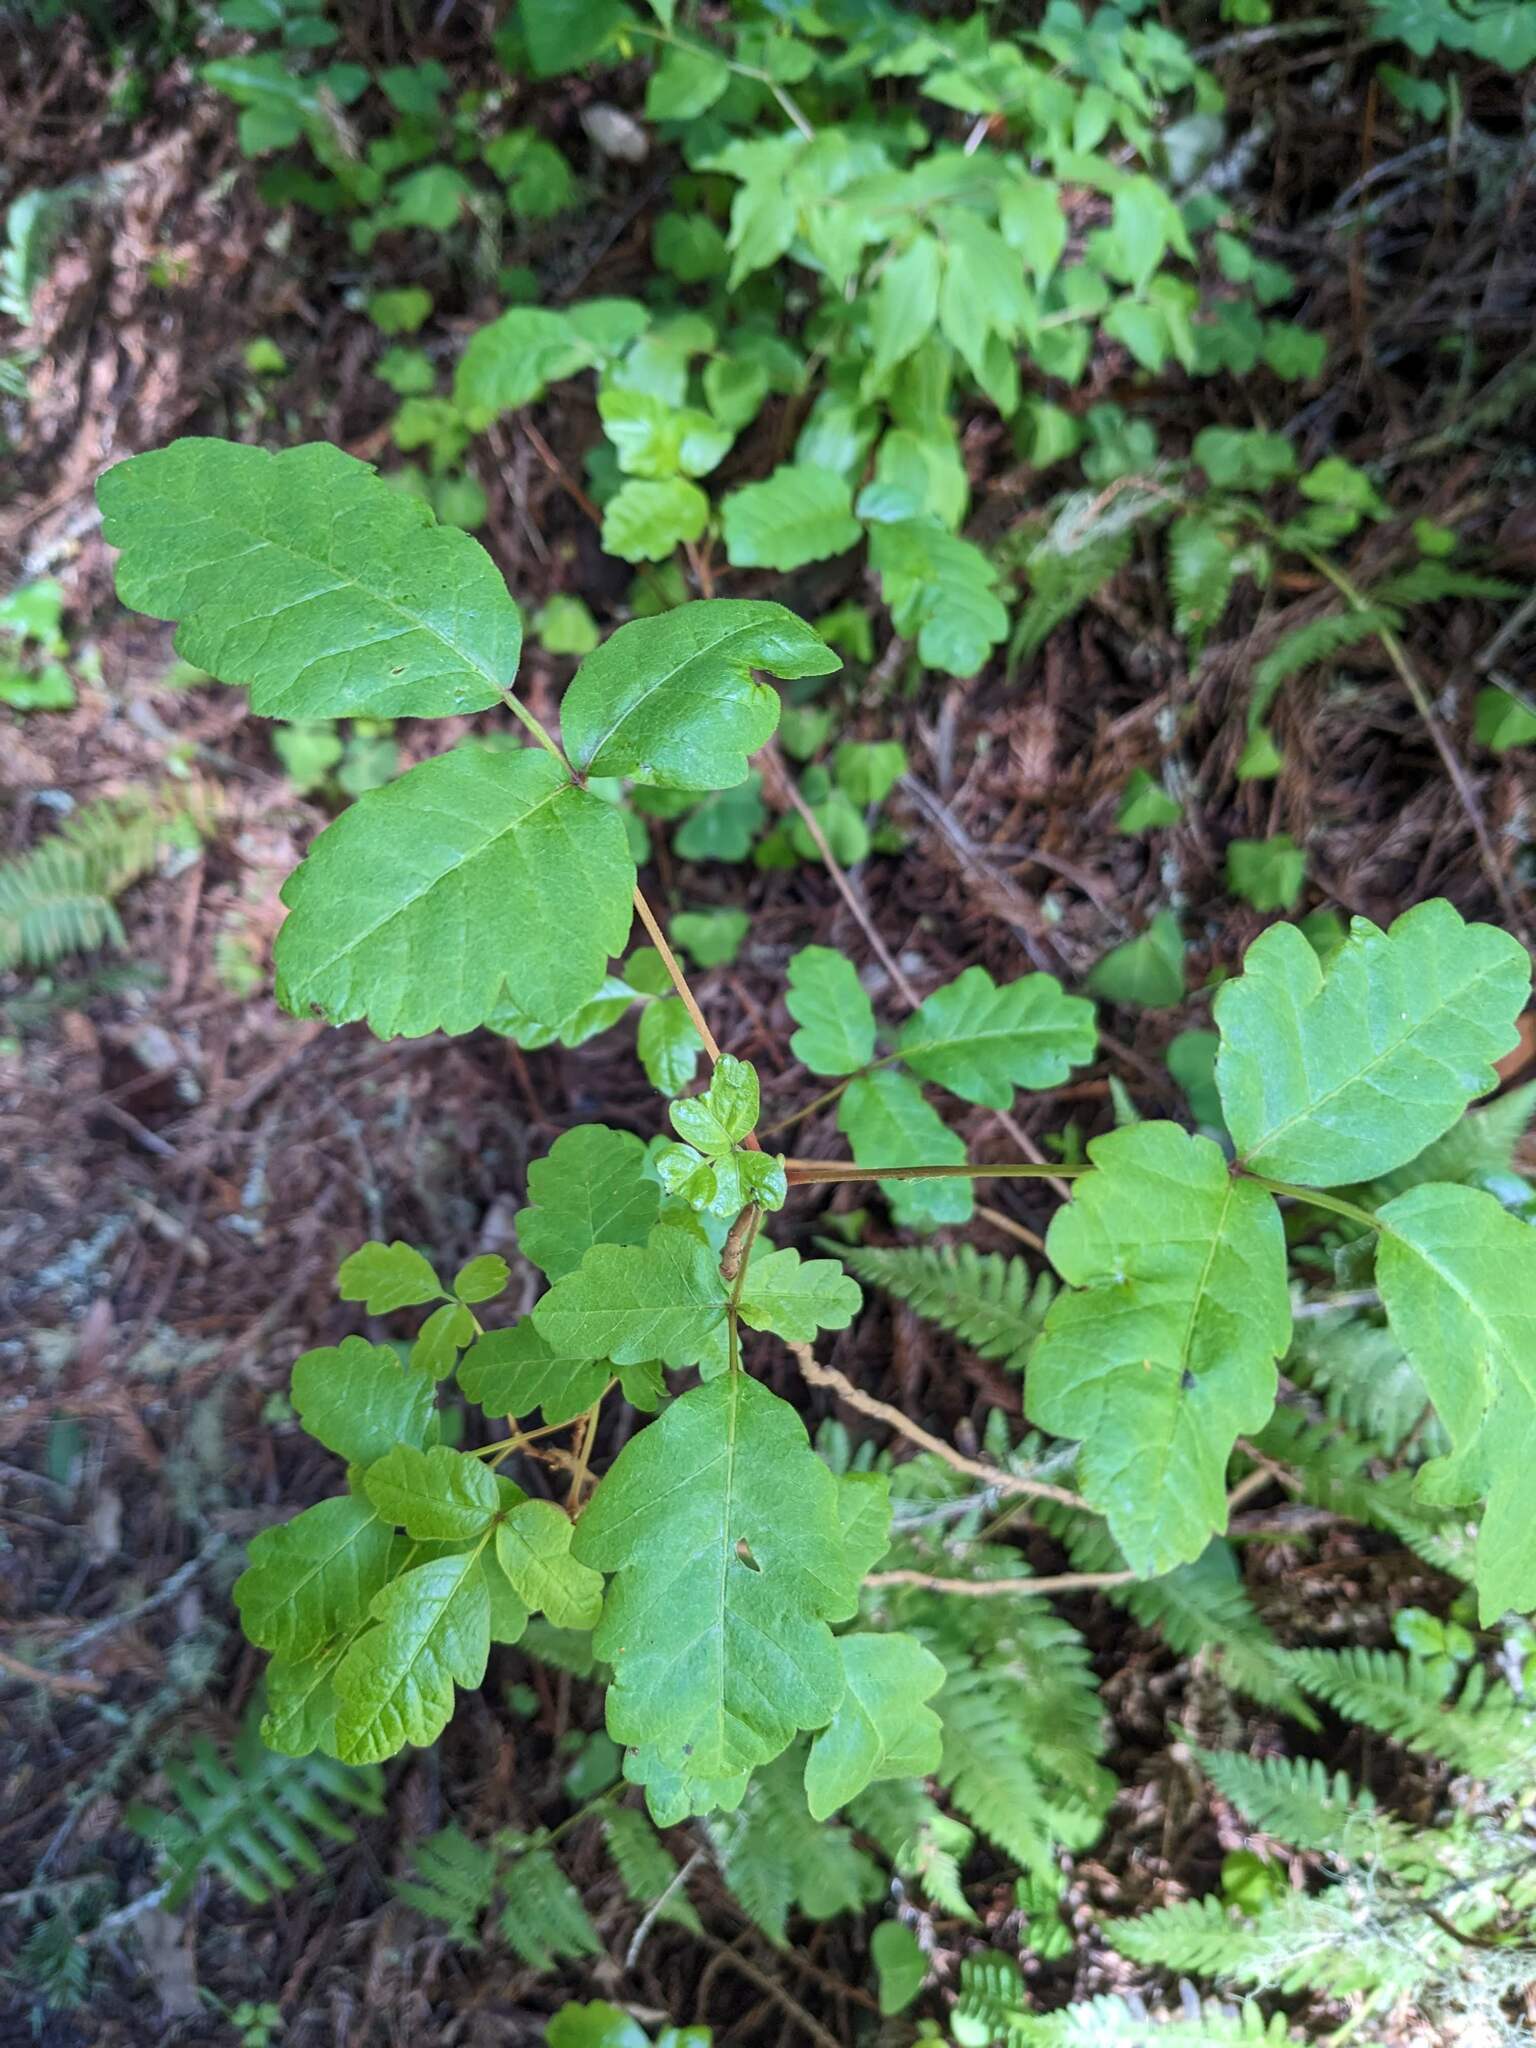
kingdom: Plantae
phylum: Tracheophyta
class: Magnoliopsida
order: Sapindales
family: Anacardiaceae
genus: Toxicodendron
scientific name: Toxicodendron diversilobum
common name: Pacific poison-oak
